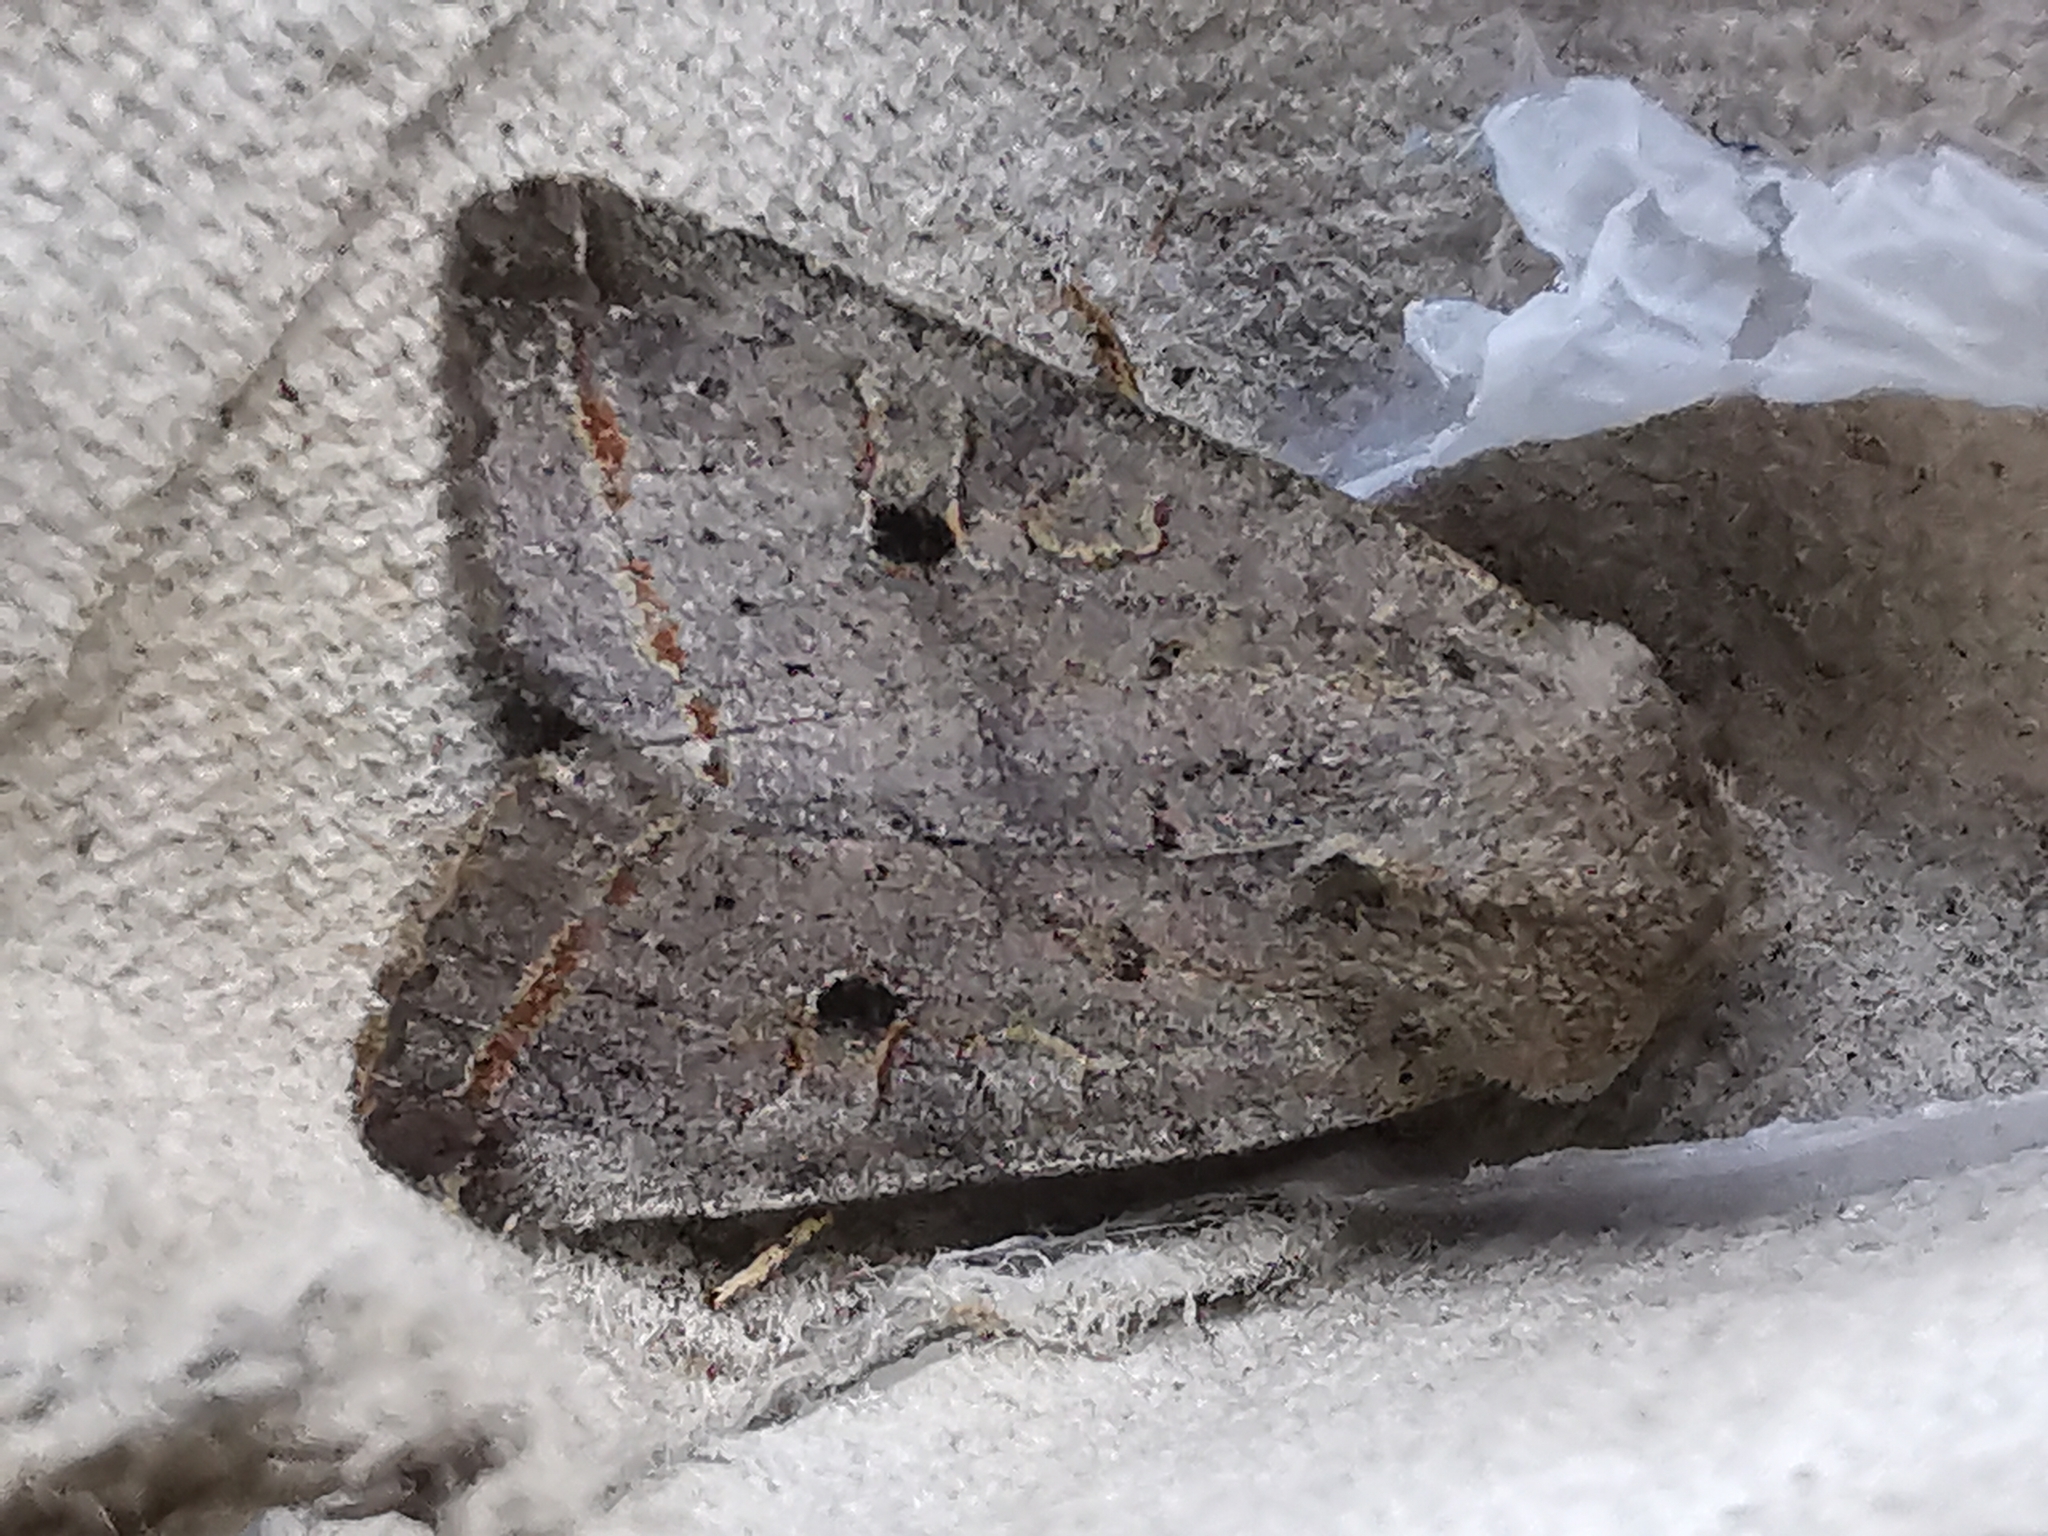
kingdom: Animalia
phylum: Arthropoda
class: Insecta
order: Lepidoptera
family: Noctuidae
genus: Agrochola
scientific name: Agrochola lota
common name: Red-line quaker
